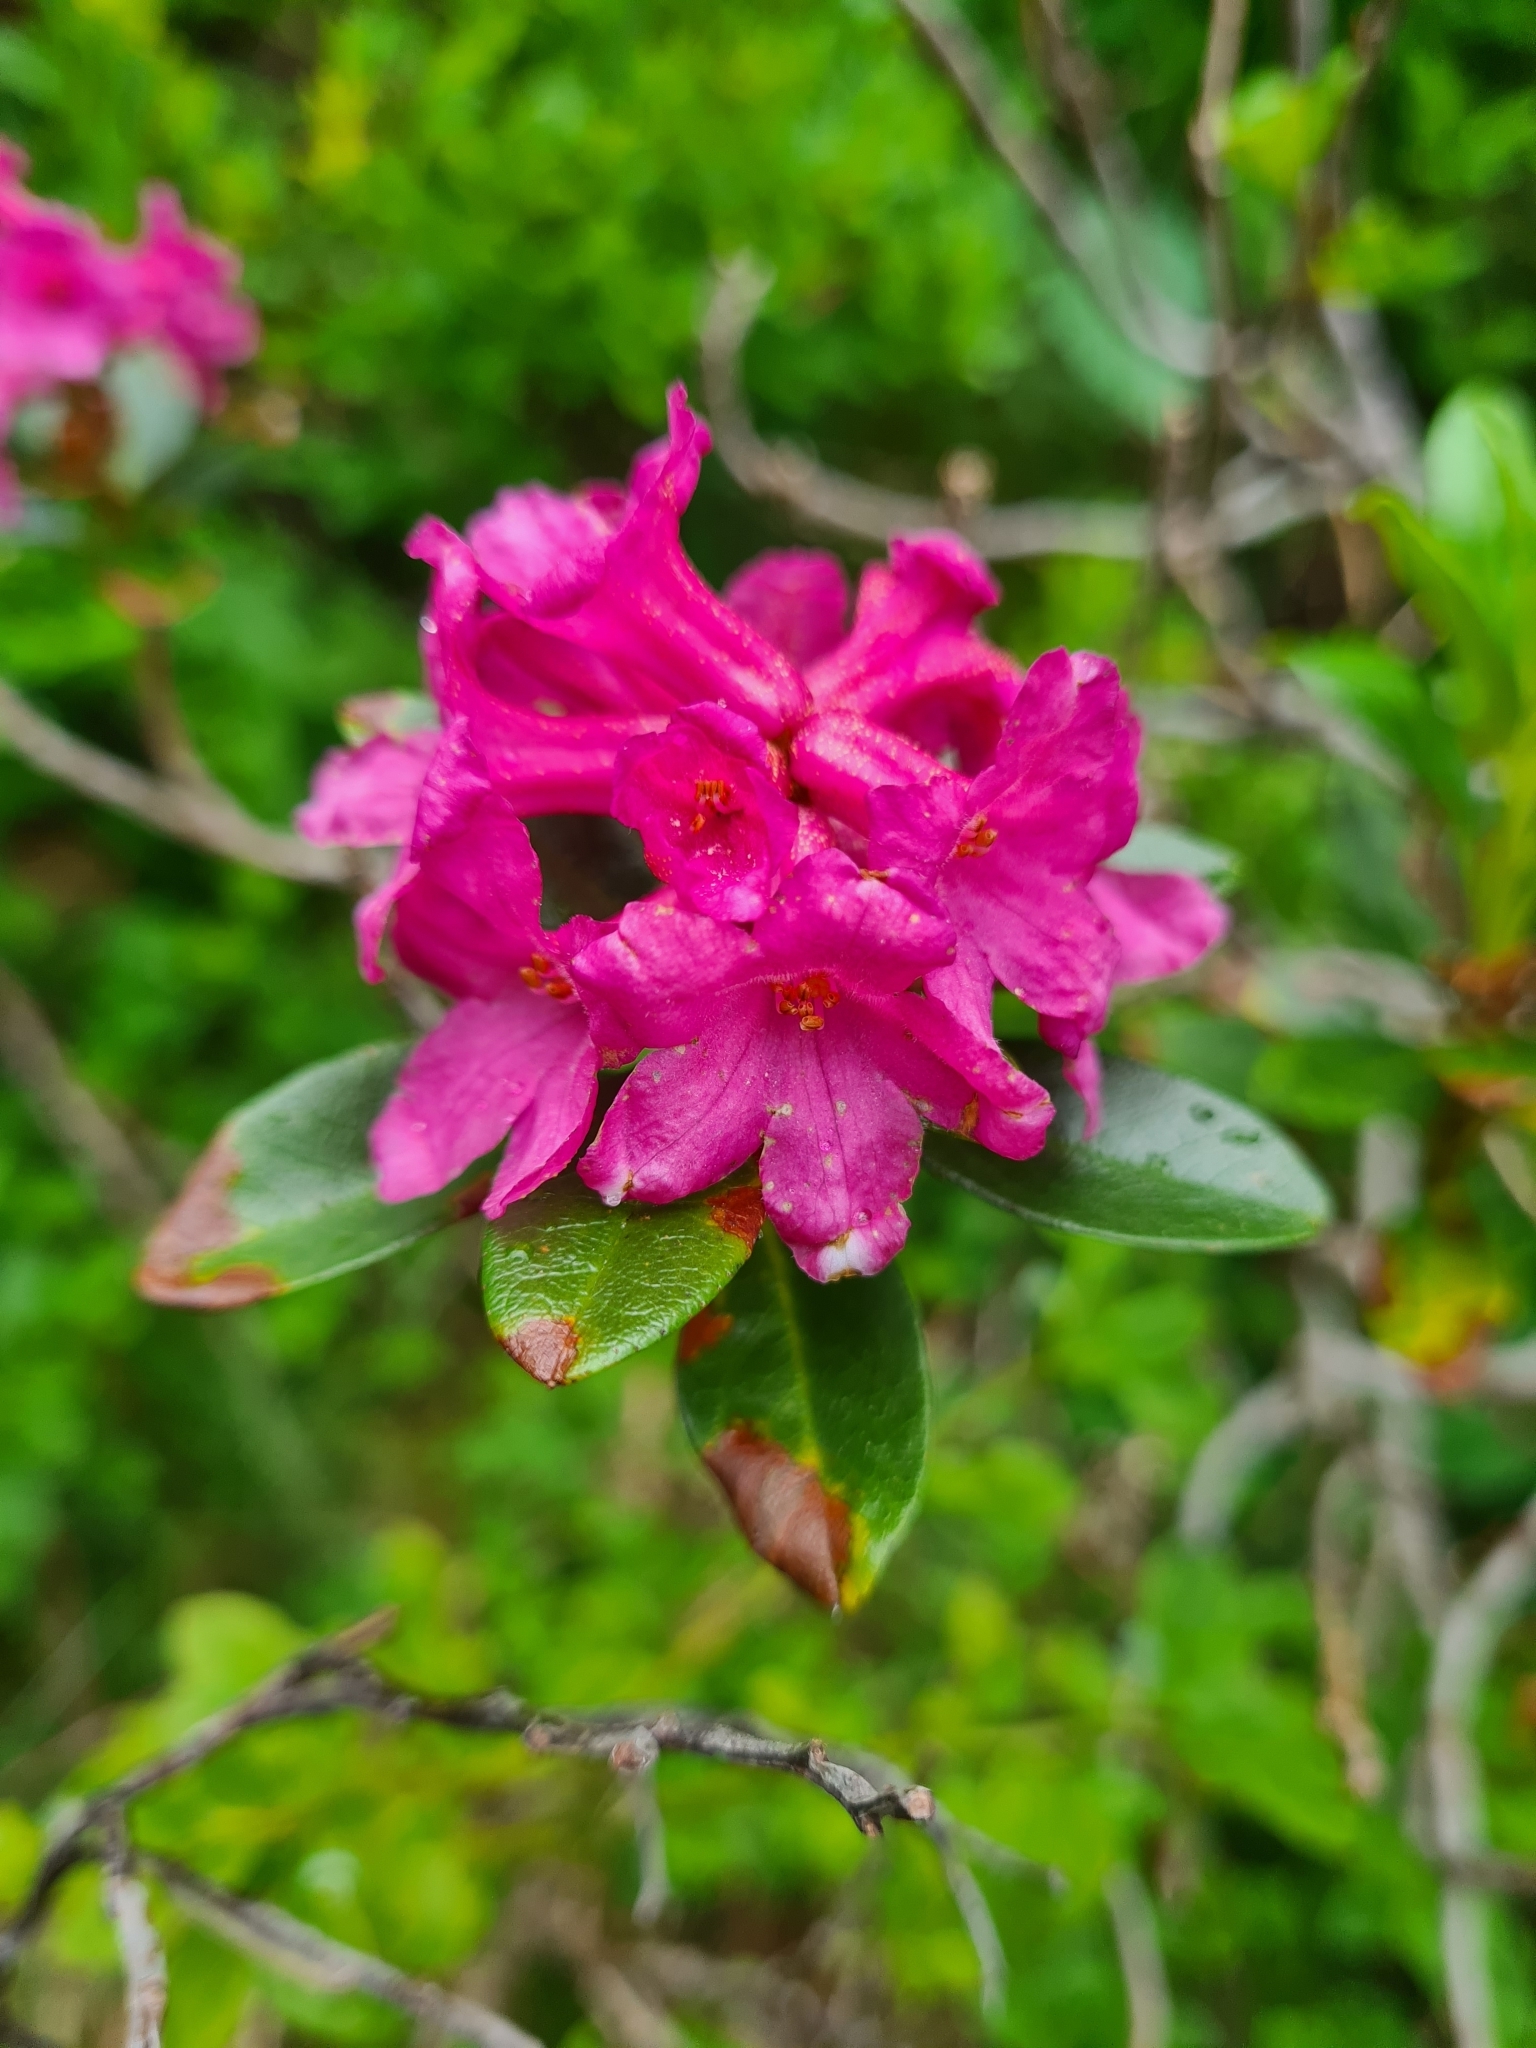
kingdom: Plantae
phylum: Tracheophyta
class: Magnoliopsida
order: Ericales
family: Ericaceae
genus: Rhododendron
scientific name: Rhododendron ferrugineum
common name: Alpenrose
